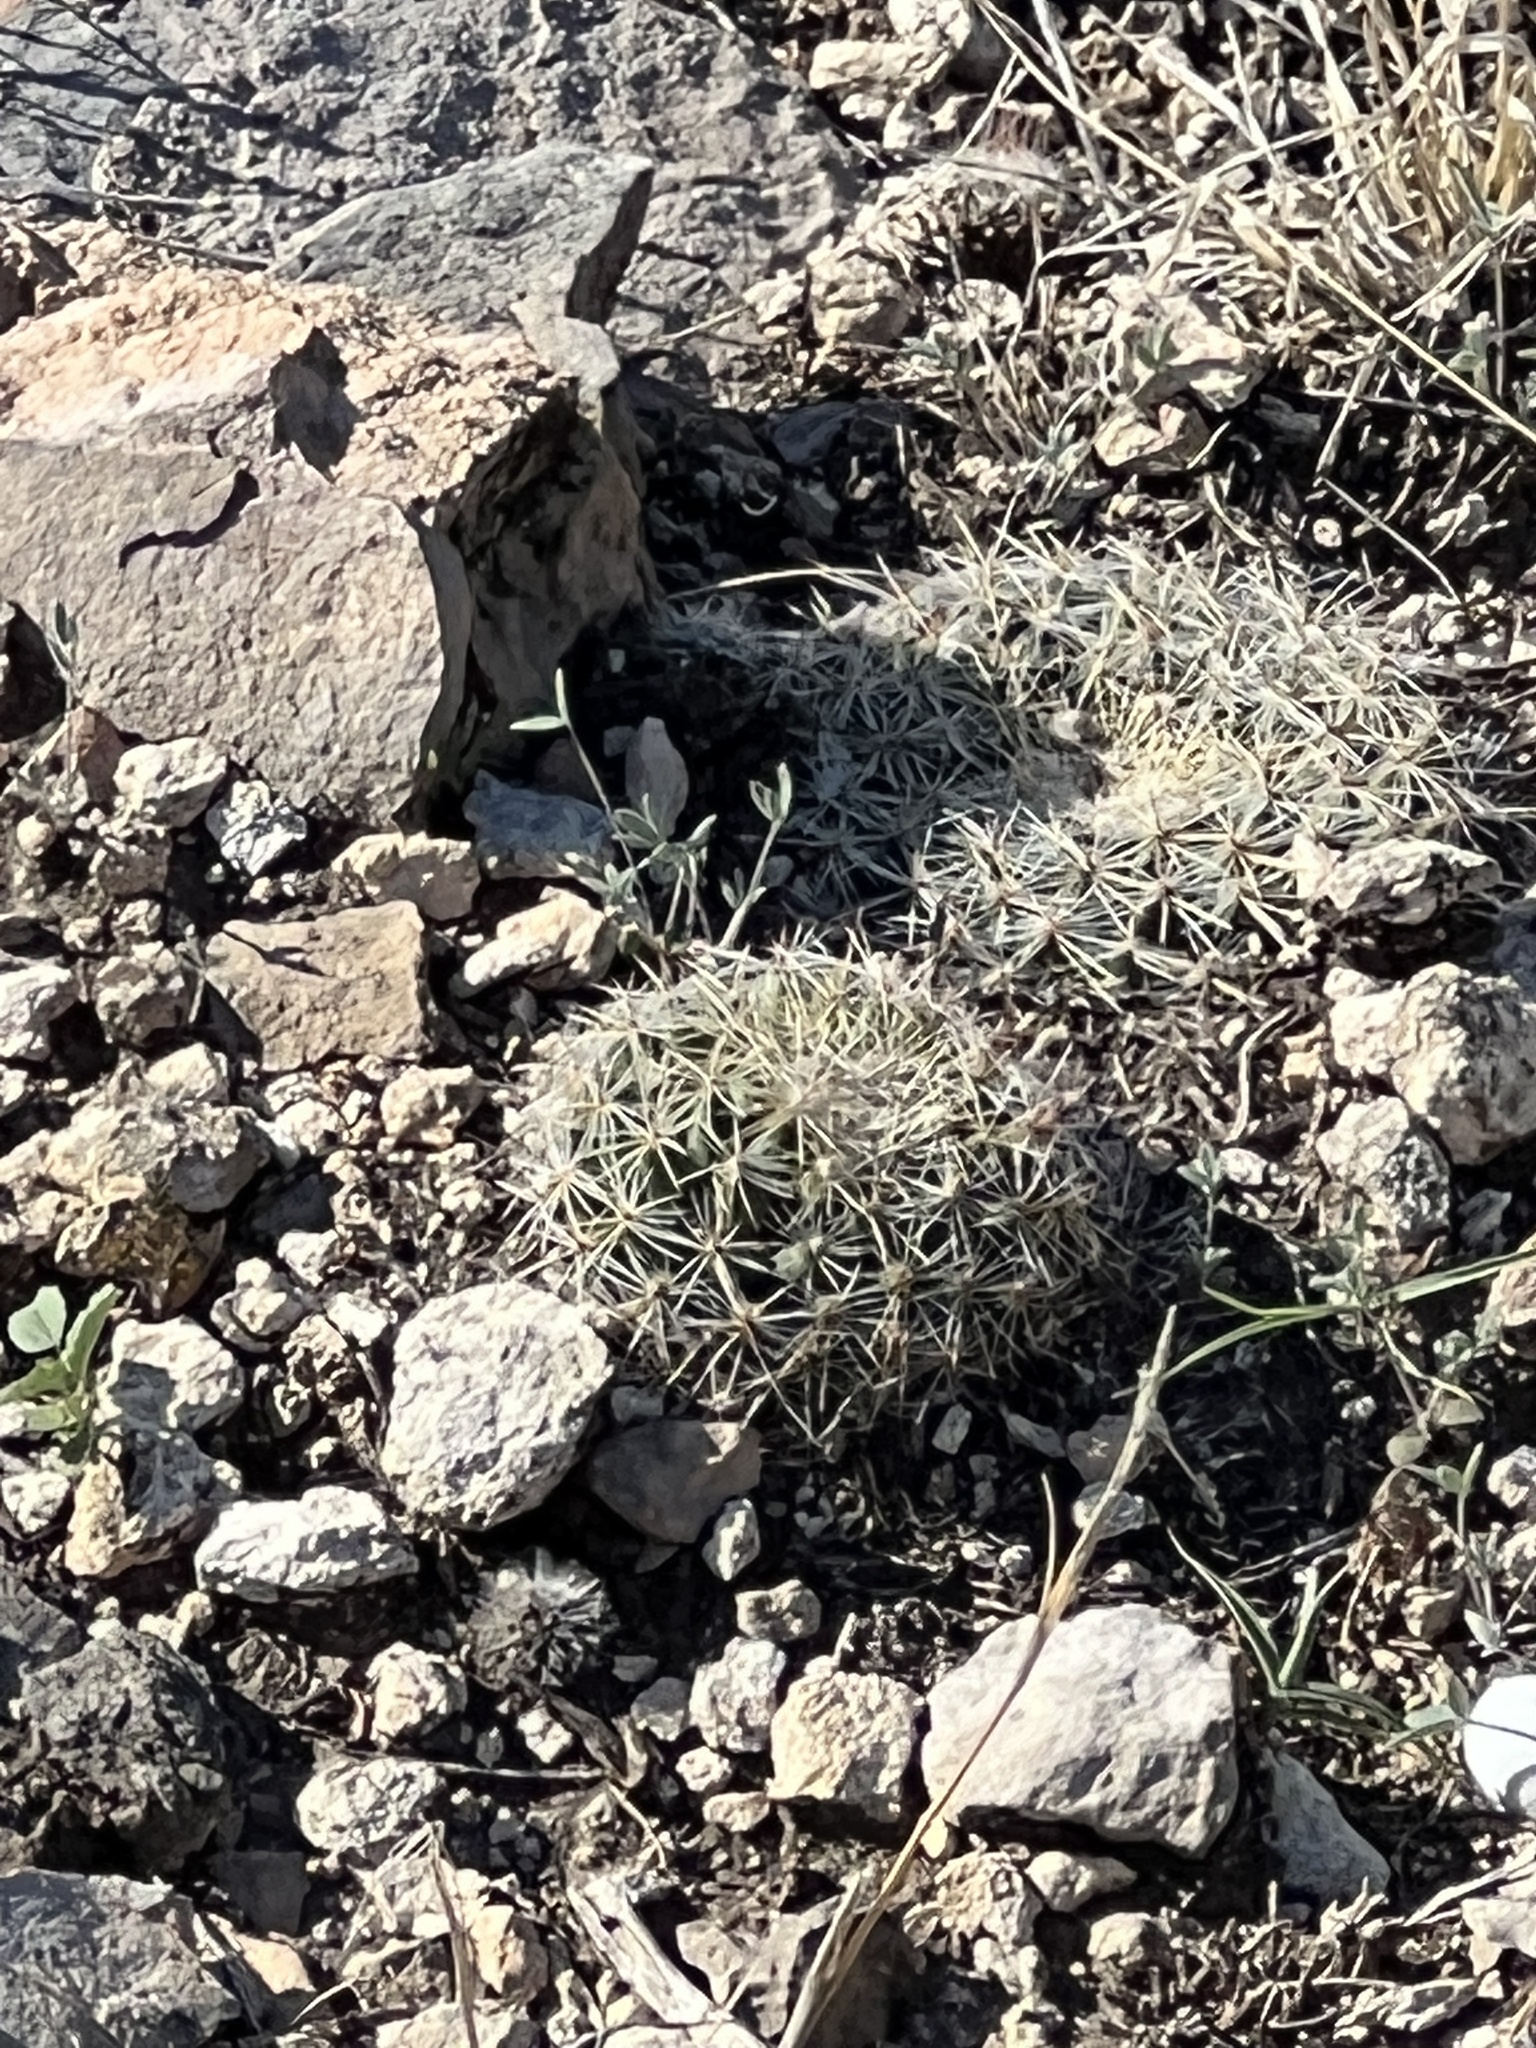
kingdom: Plantae
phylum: Tracheophyta
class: Magnoliopsida
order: Caryophyllales
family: Cactaceae
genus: Mammillaria
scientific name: Mammillaria heyderi
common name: Little nipple cactus
